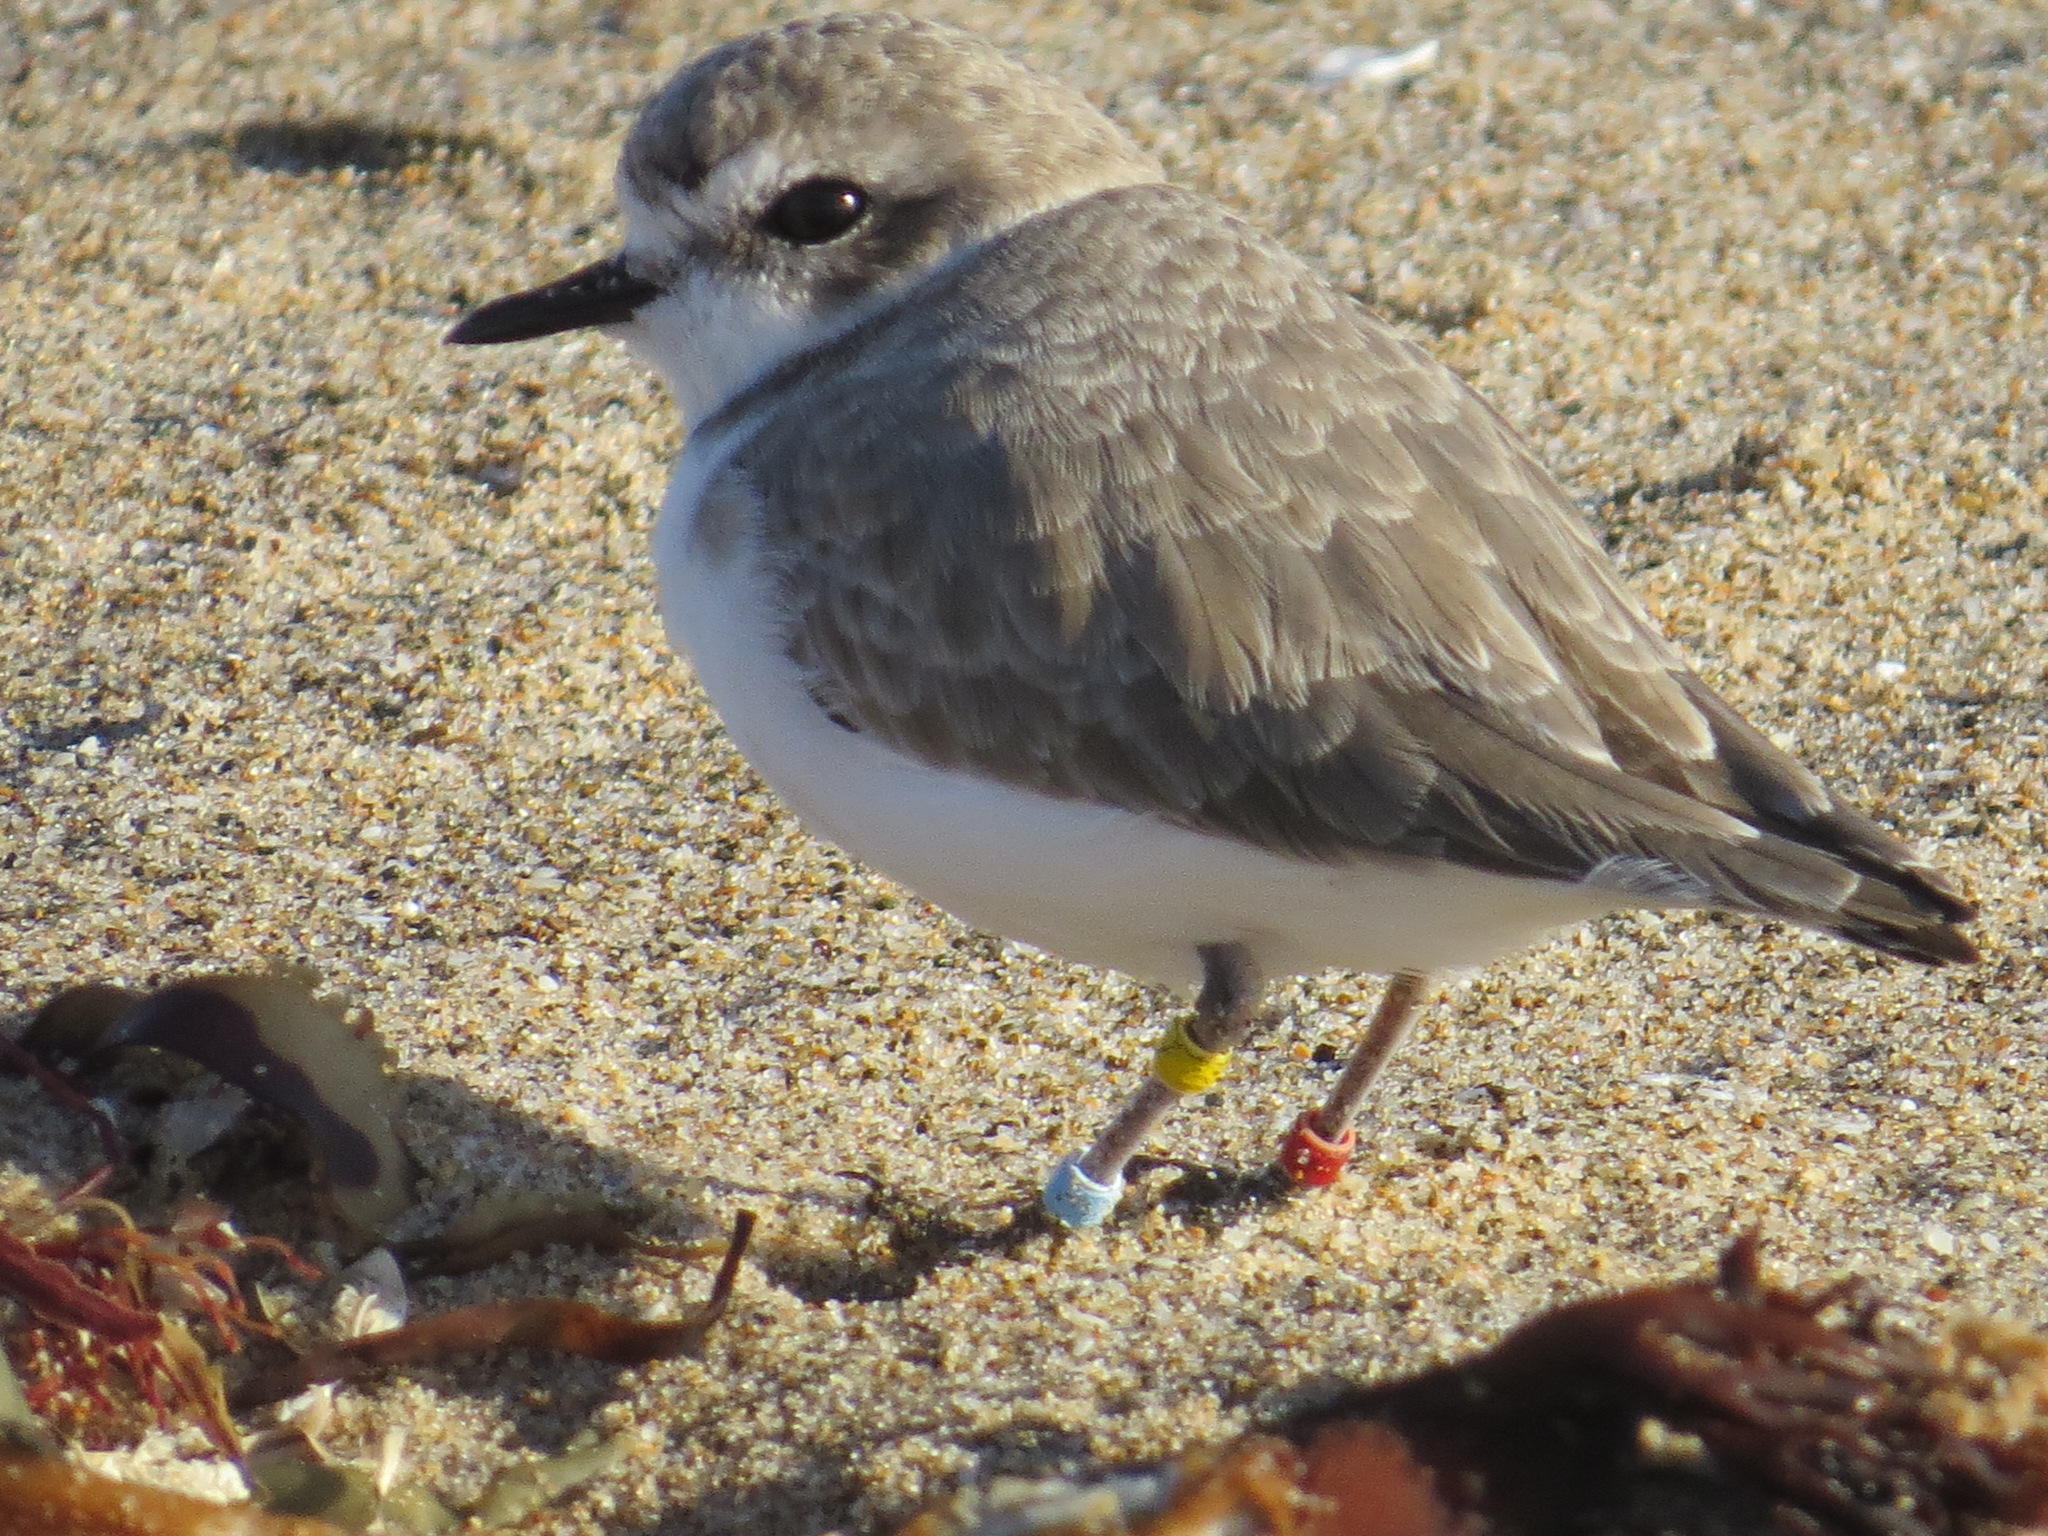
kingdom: Animalia
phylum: Chordata
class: Aves
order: Charadriiformes
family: Charadriidae
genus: Anarhynchus
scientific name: Anarhynchus
